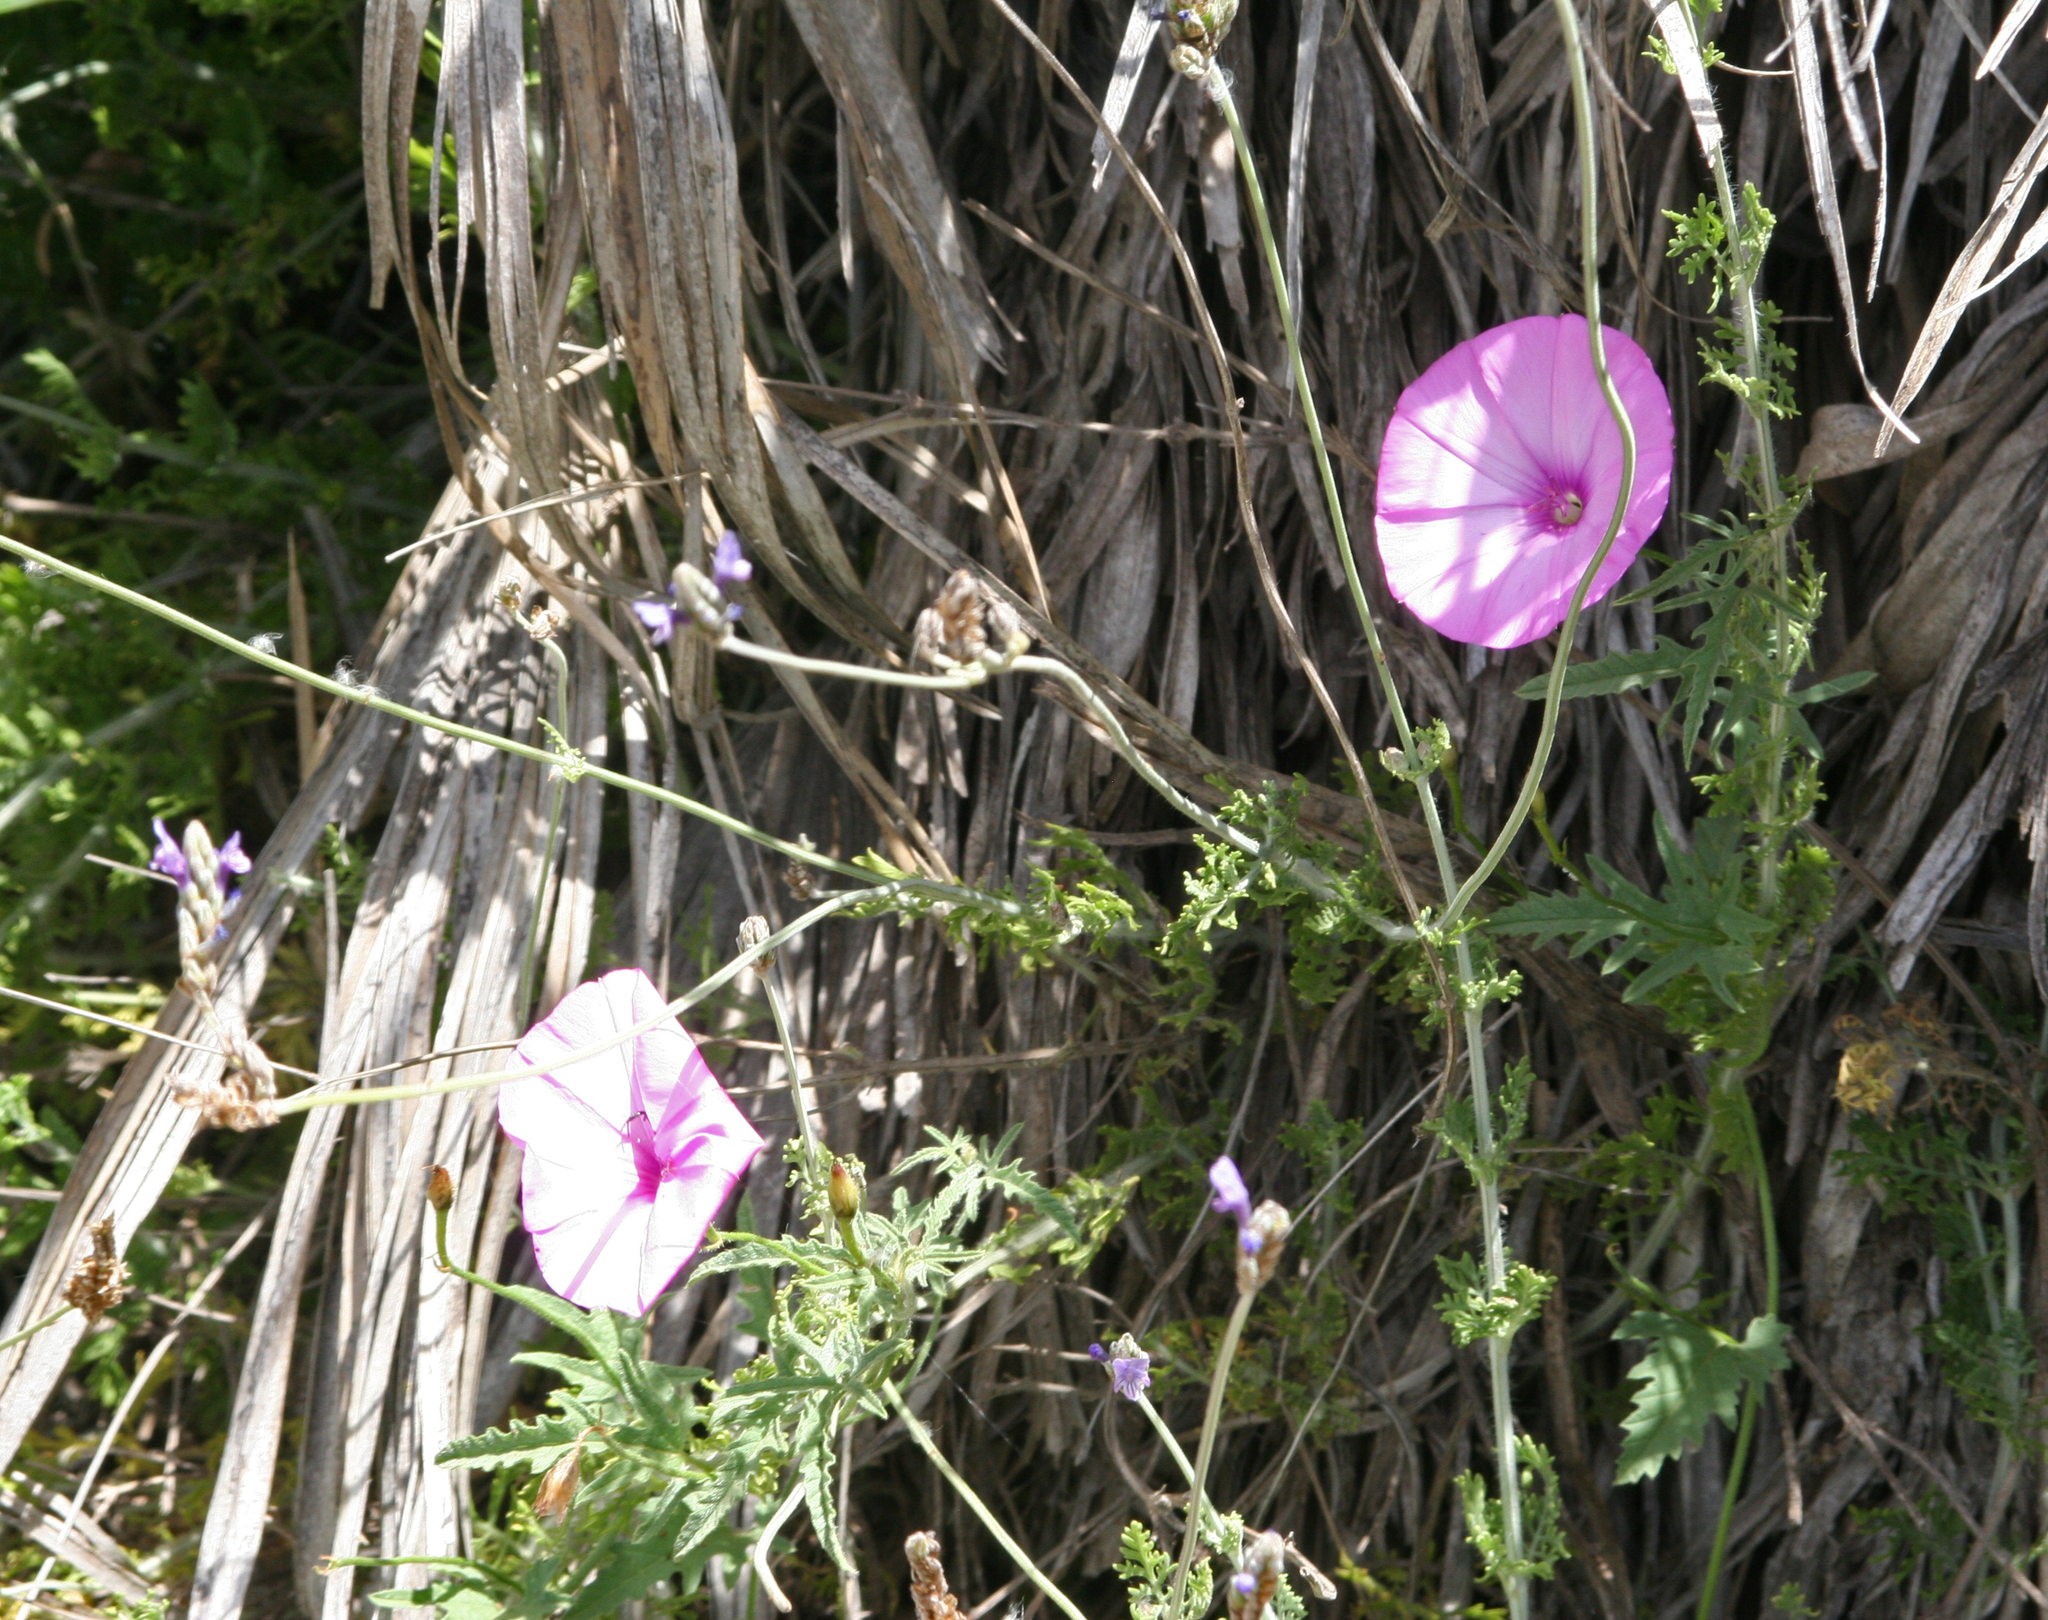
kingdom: Plantae
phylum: Tracheophyta
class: Magnoliopsida
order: Solanales
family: Convolvulaceae
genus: Convolvulus
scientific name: Convolvulus althaeoides
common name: Mallow bindweed
